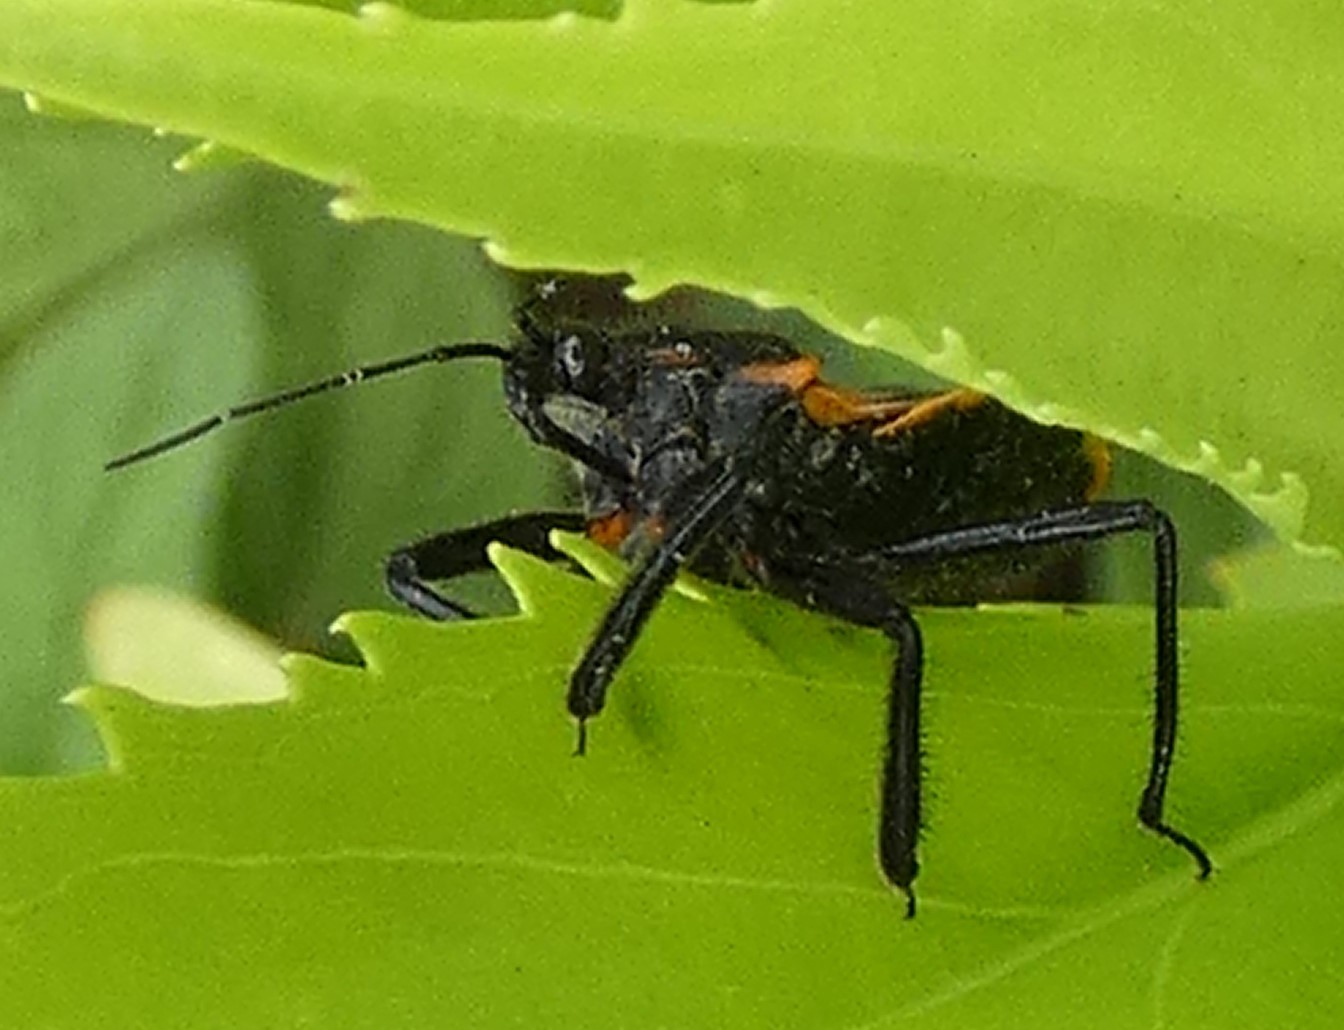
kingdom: Animalia
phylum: Arthropoda
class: Insecta
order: Hemiptera
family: Reduviidae
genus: Apiomerus
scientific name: Apiomerus crassipes
